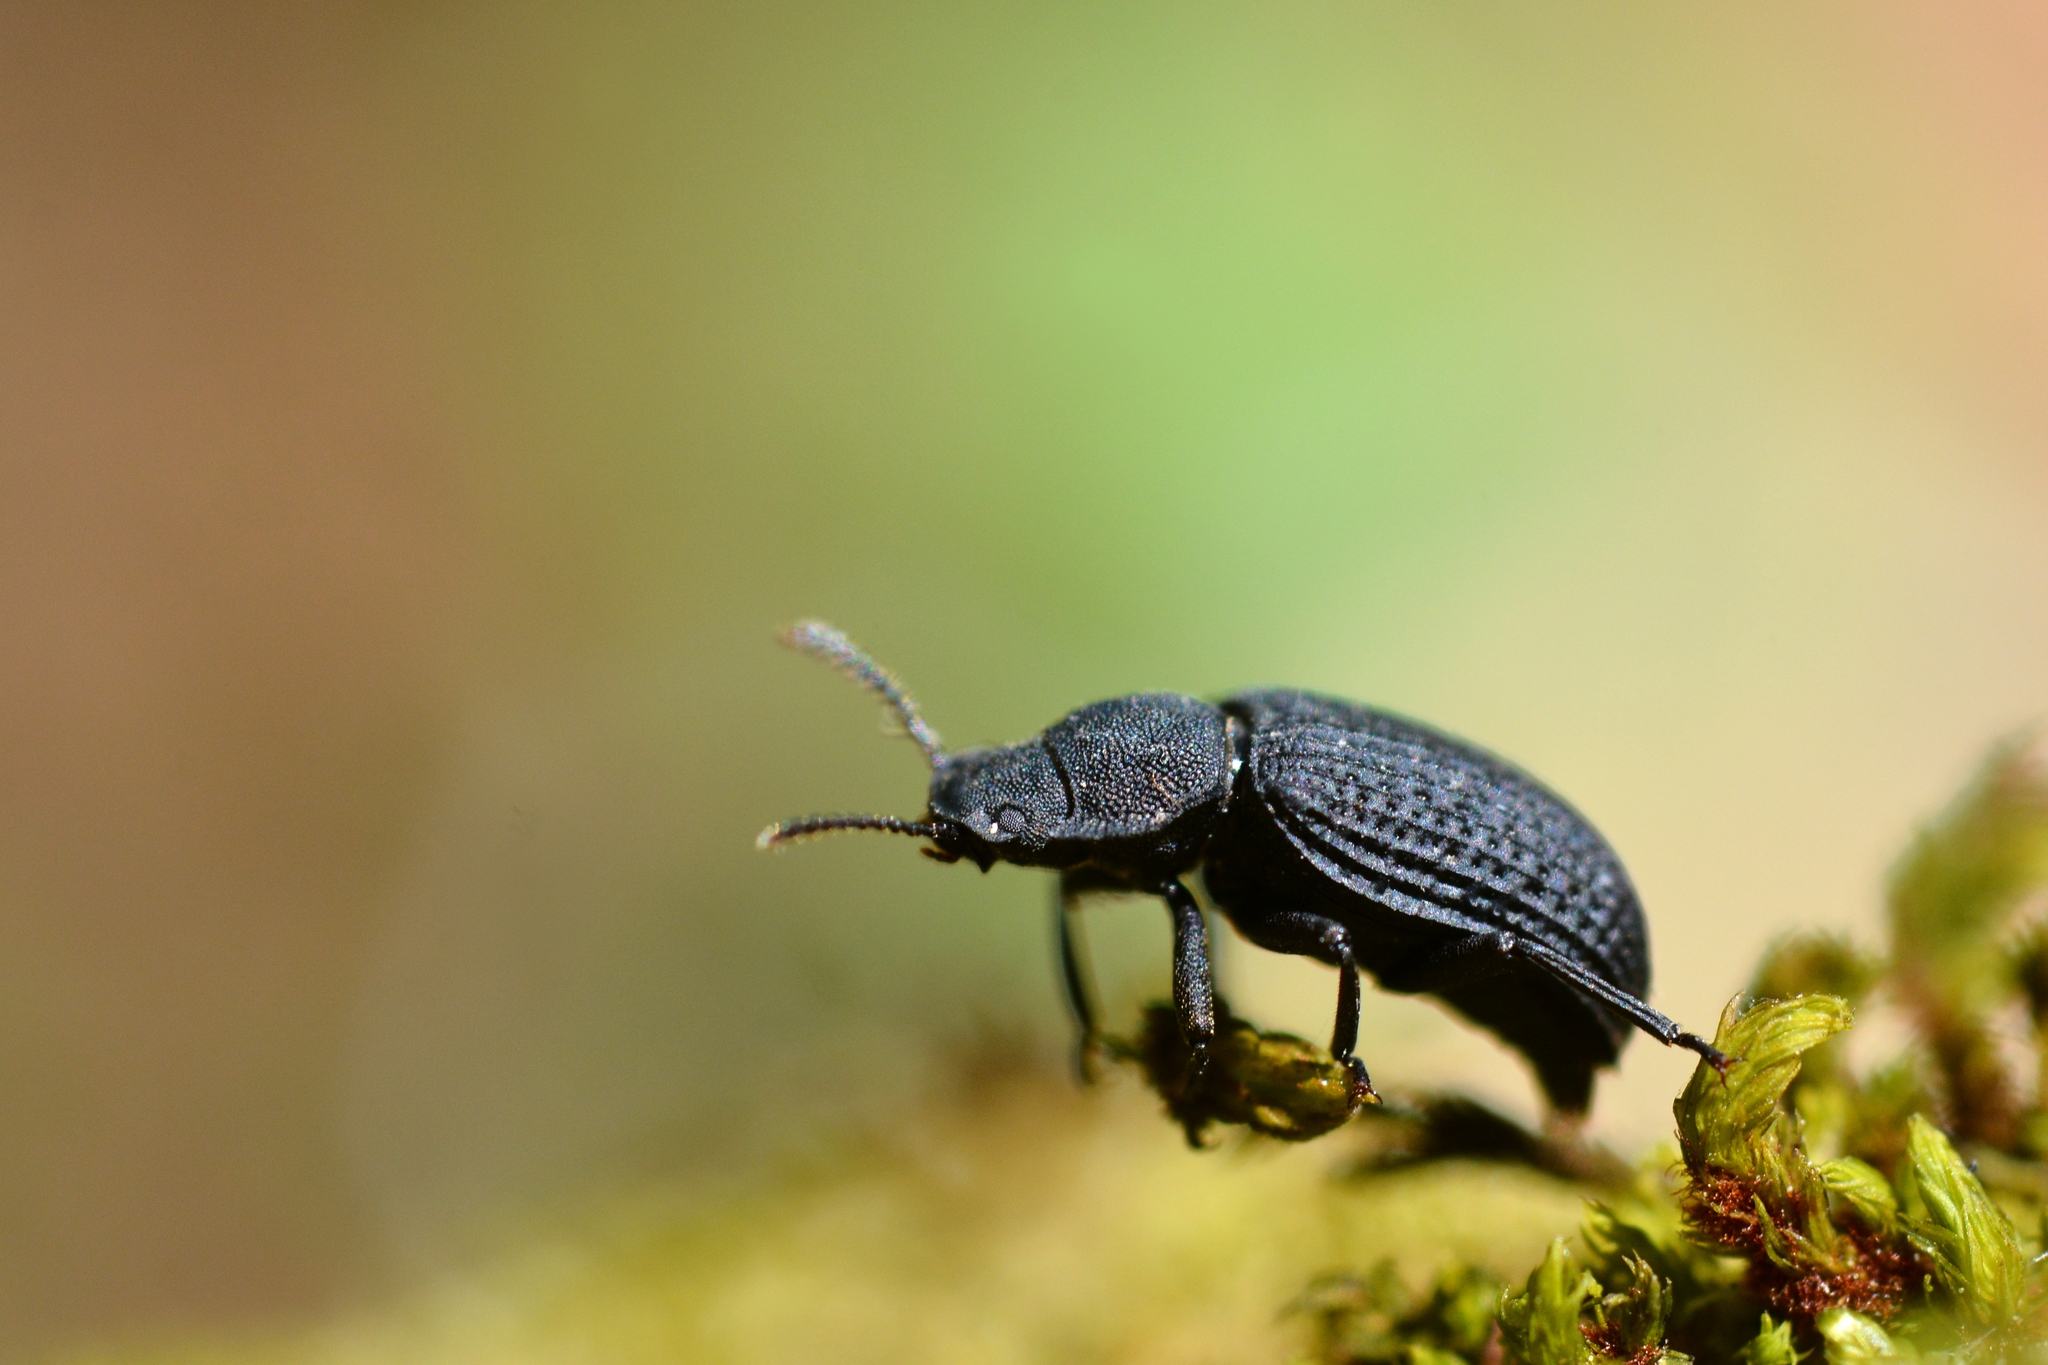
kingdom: Animalia
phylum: Arthropoda
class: Insecta
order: Coleoptera
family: Tenebrionidae
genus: Bolitophagus
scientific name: Bolitophagus reticulatus
